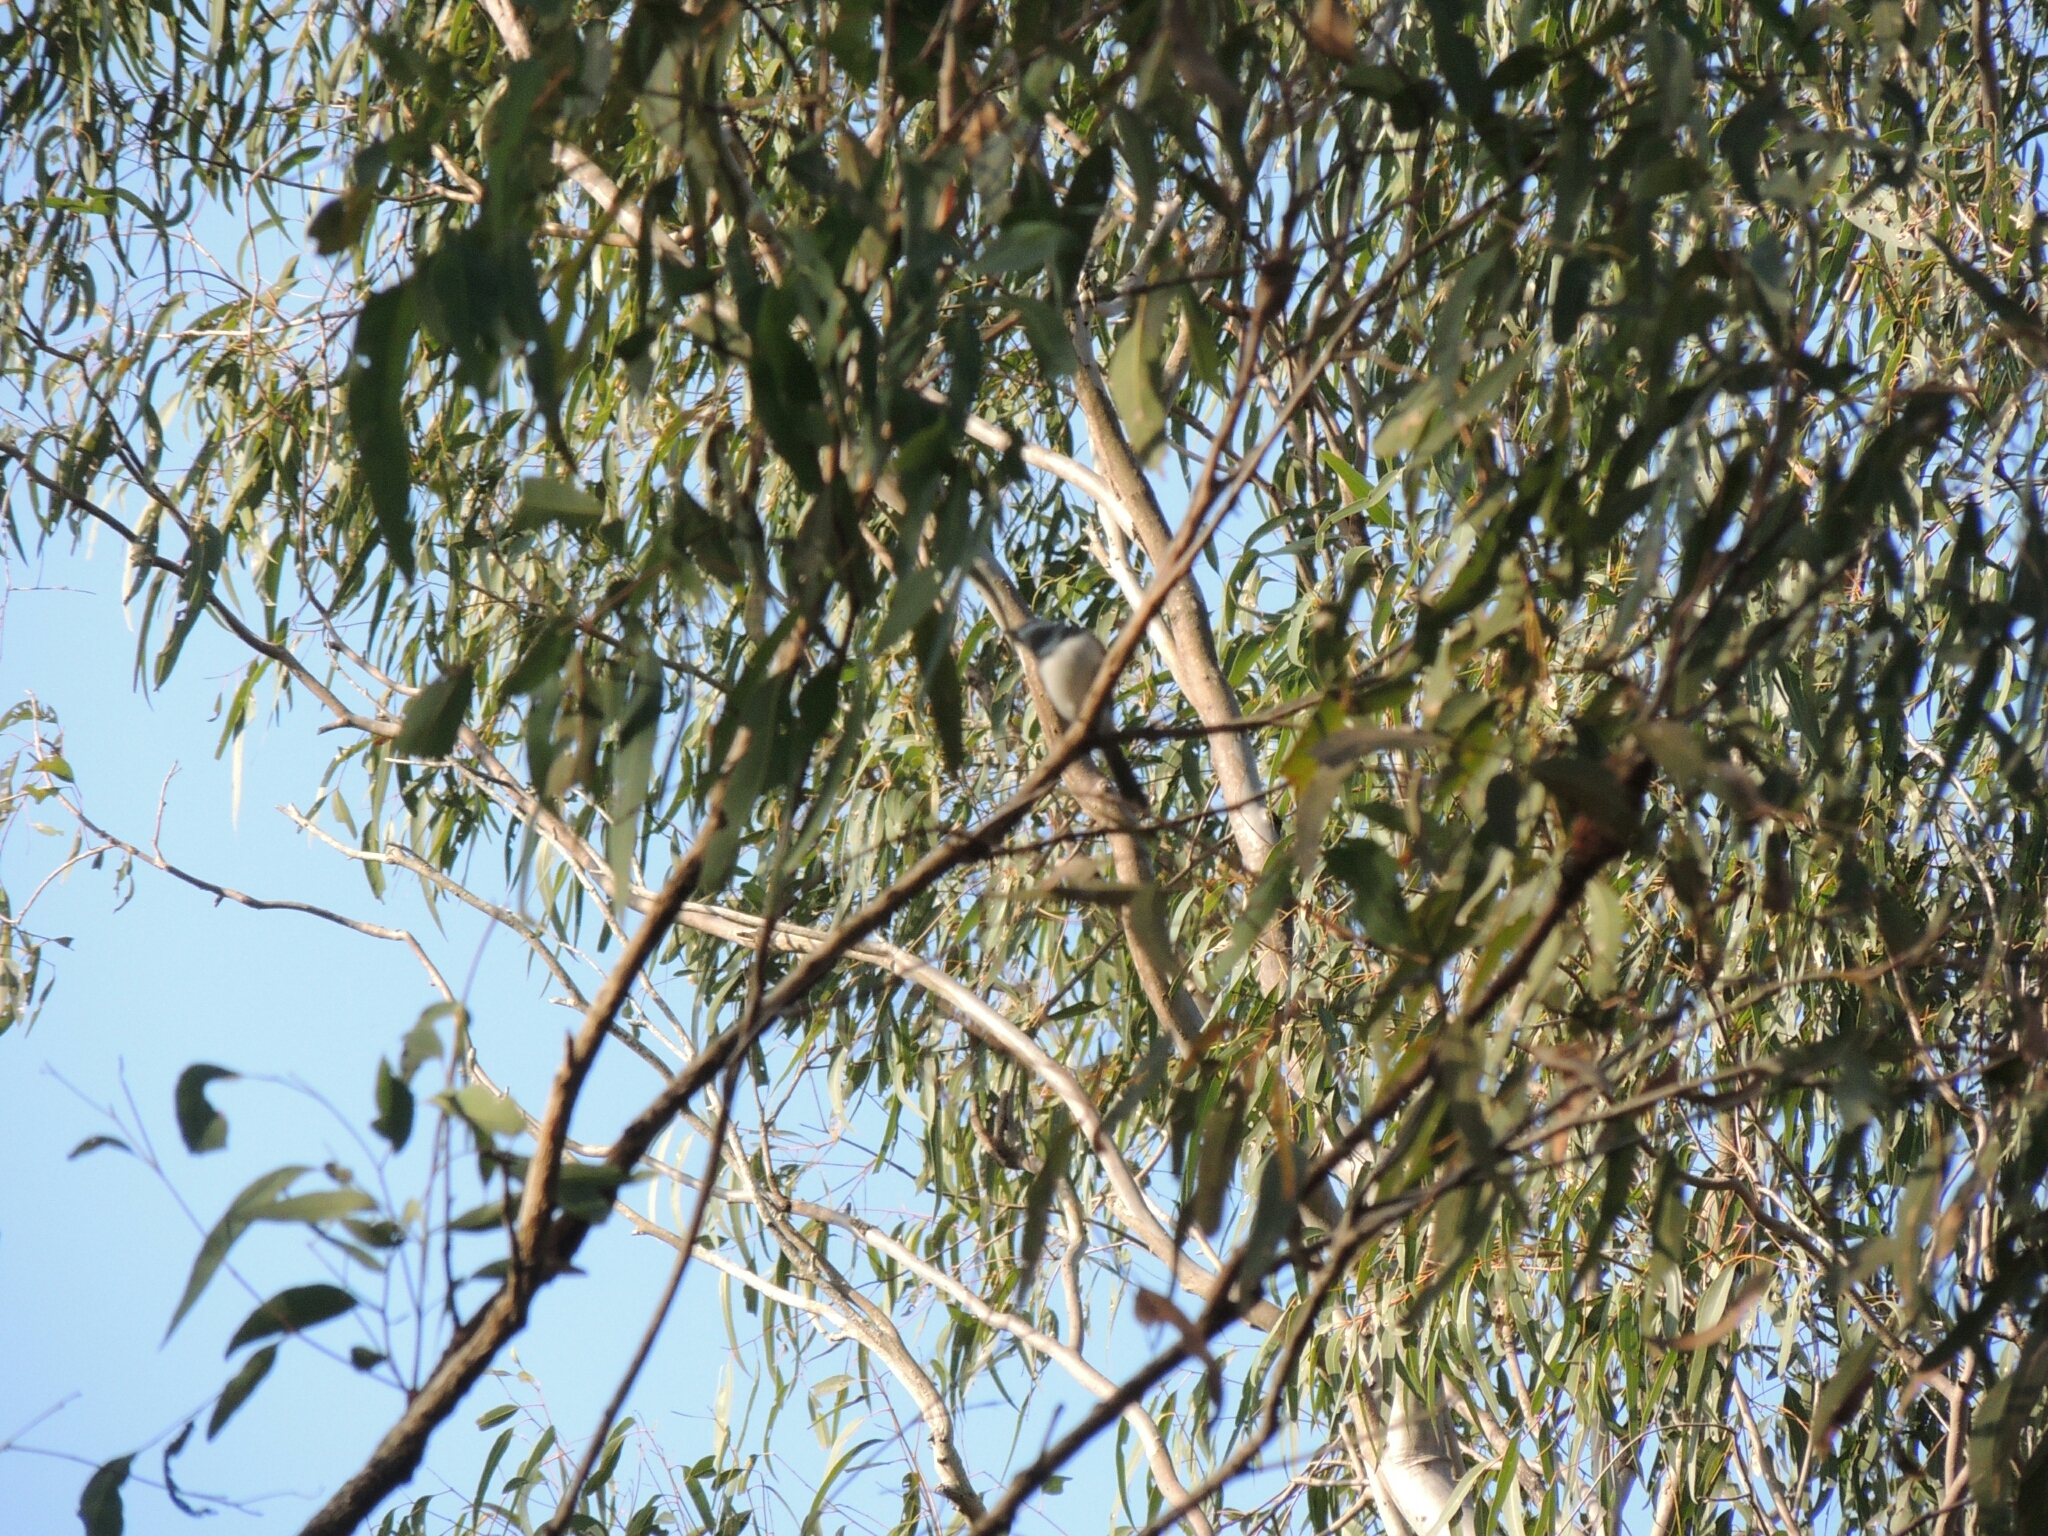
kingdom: Animalia
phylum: Chordata
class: Aves
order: Passeriformes
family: Monarchidae
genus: Myiagra
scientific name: Myiagra rubecula
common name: Leaden flycatcher
